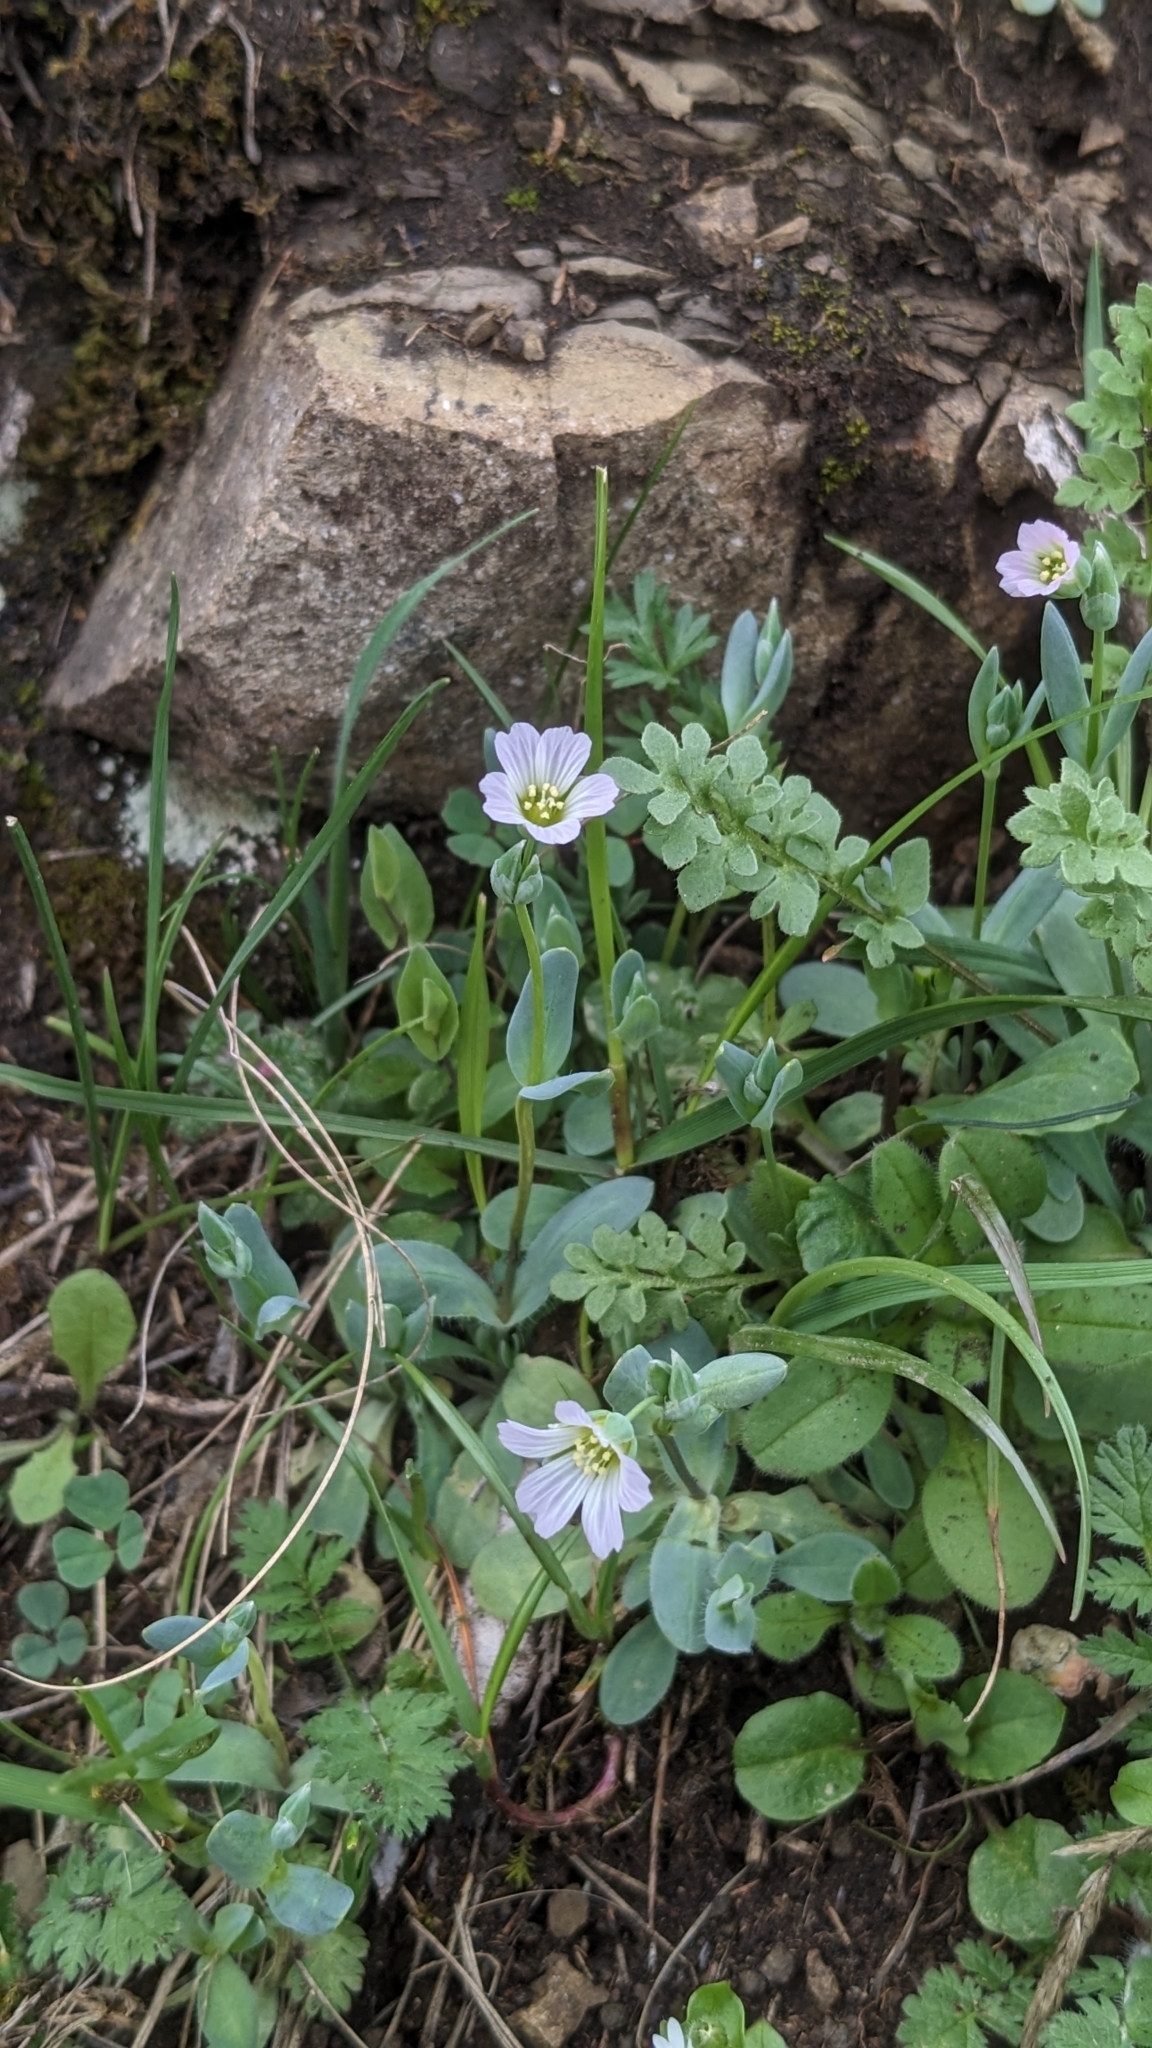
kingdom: Plantae
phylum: Tracheophyta
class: Magnoliopsida
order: Caryophyllales
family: Caryophyllaceae
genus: Holosteum
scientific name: Holosteum umbellatum
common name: Jagged chickweed
